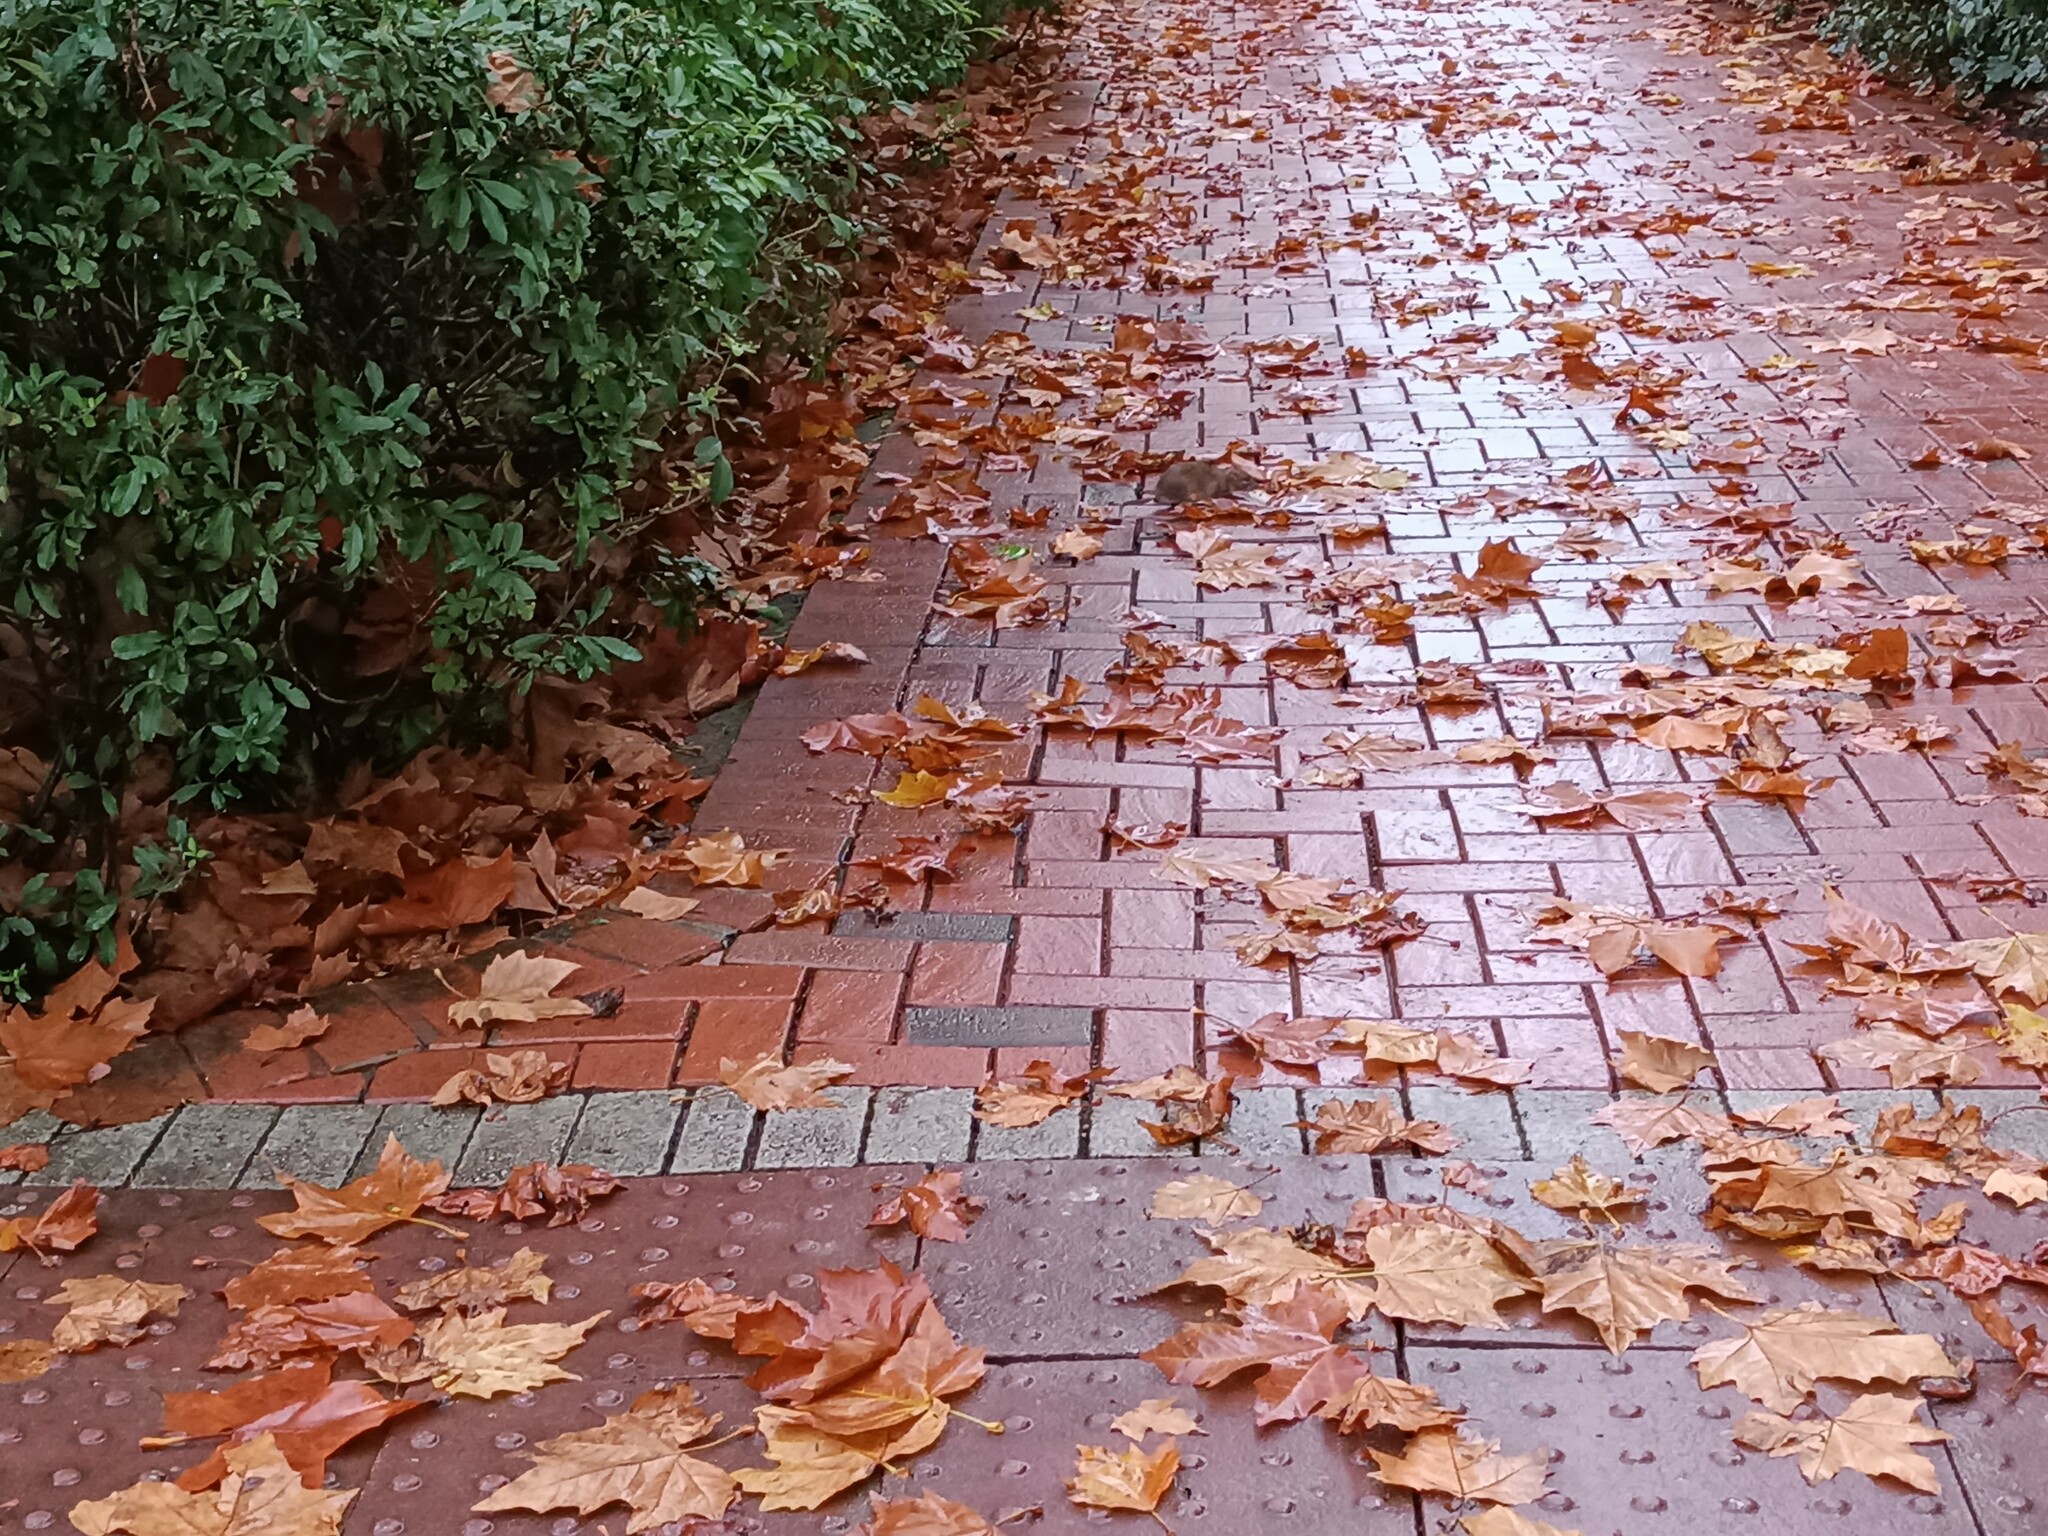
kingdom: Animalia
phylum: Chordata
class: Mammalia
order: Rodentia
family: Muridae
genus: Rattus
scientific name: Rattus norvegicus
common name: Brown rat
